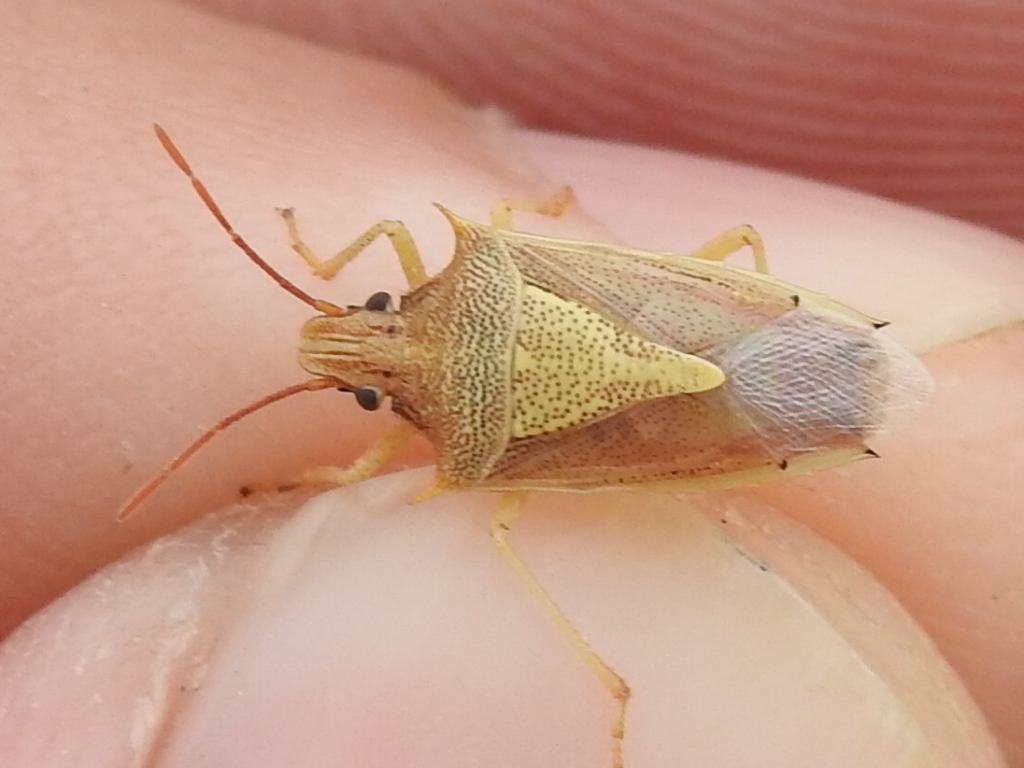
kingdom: Animalia
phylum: Arthropoda
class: Insecta
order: Hemiptera
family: Pentatomidae
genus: Oebalus
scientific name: Oebalus pugnax
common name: Rice stink bug
